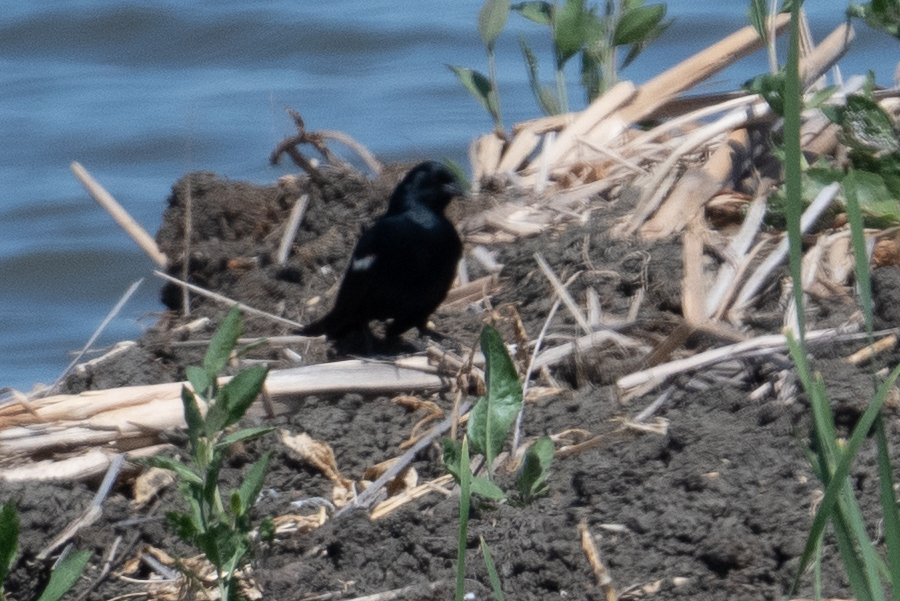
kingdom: Animalia
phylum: Chordata
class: Aves
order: Passeriformes
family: Icteridae
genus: Agelaius
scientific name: Agelaius tricolor
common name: Tricolored blackbird
